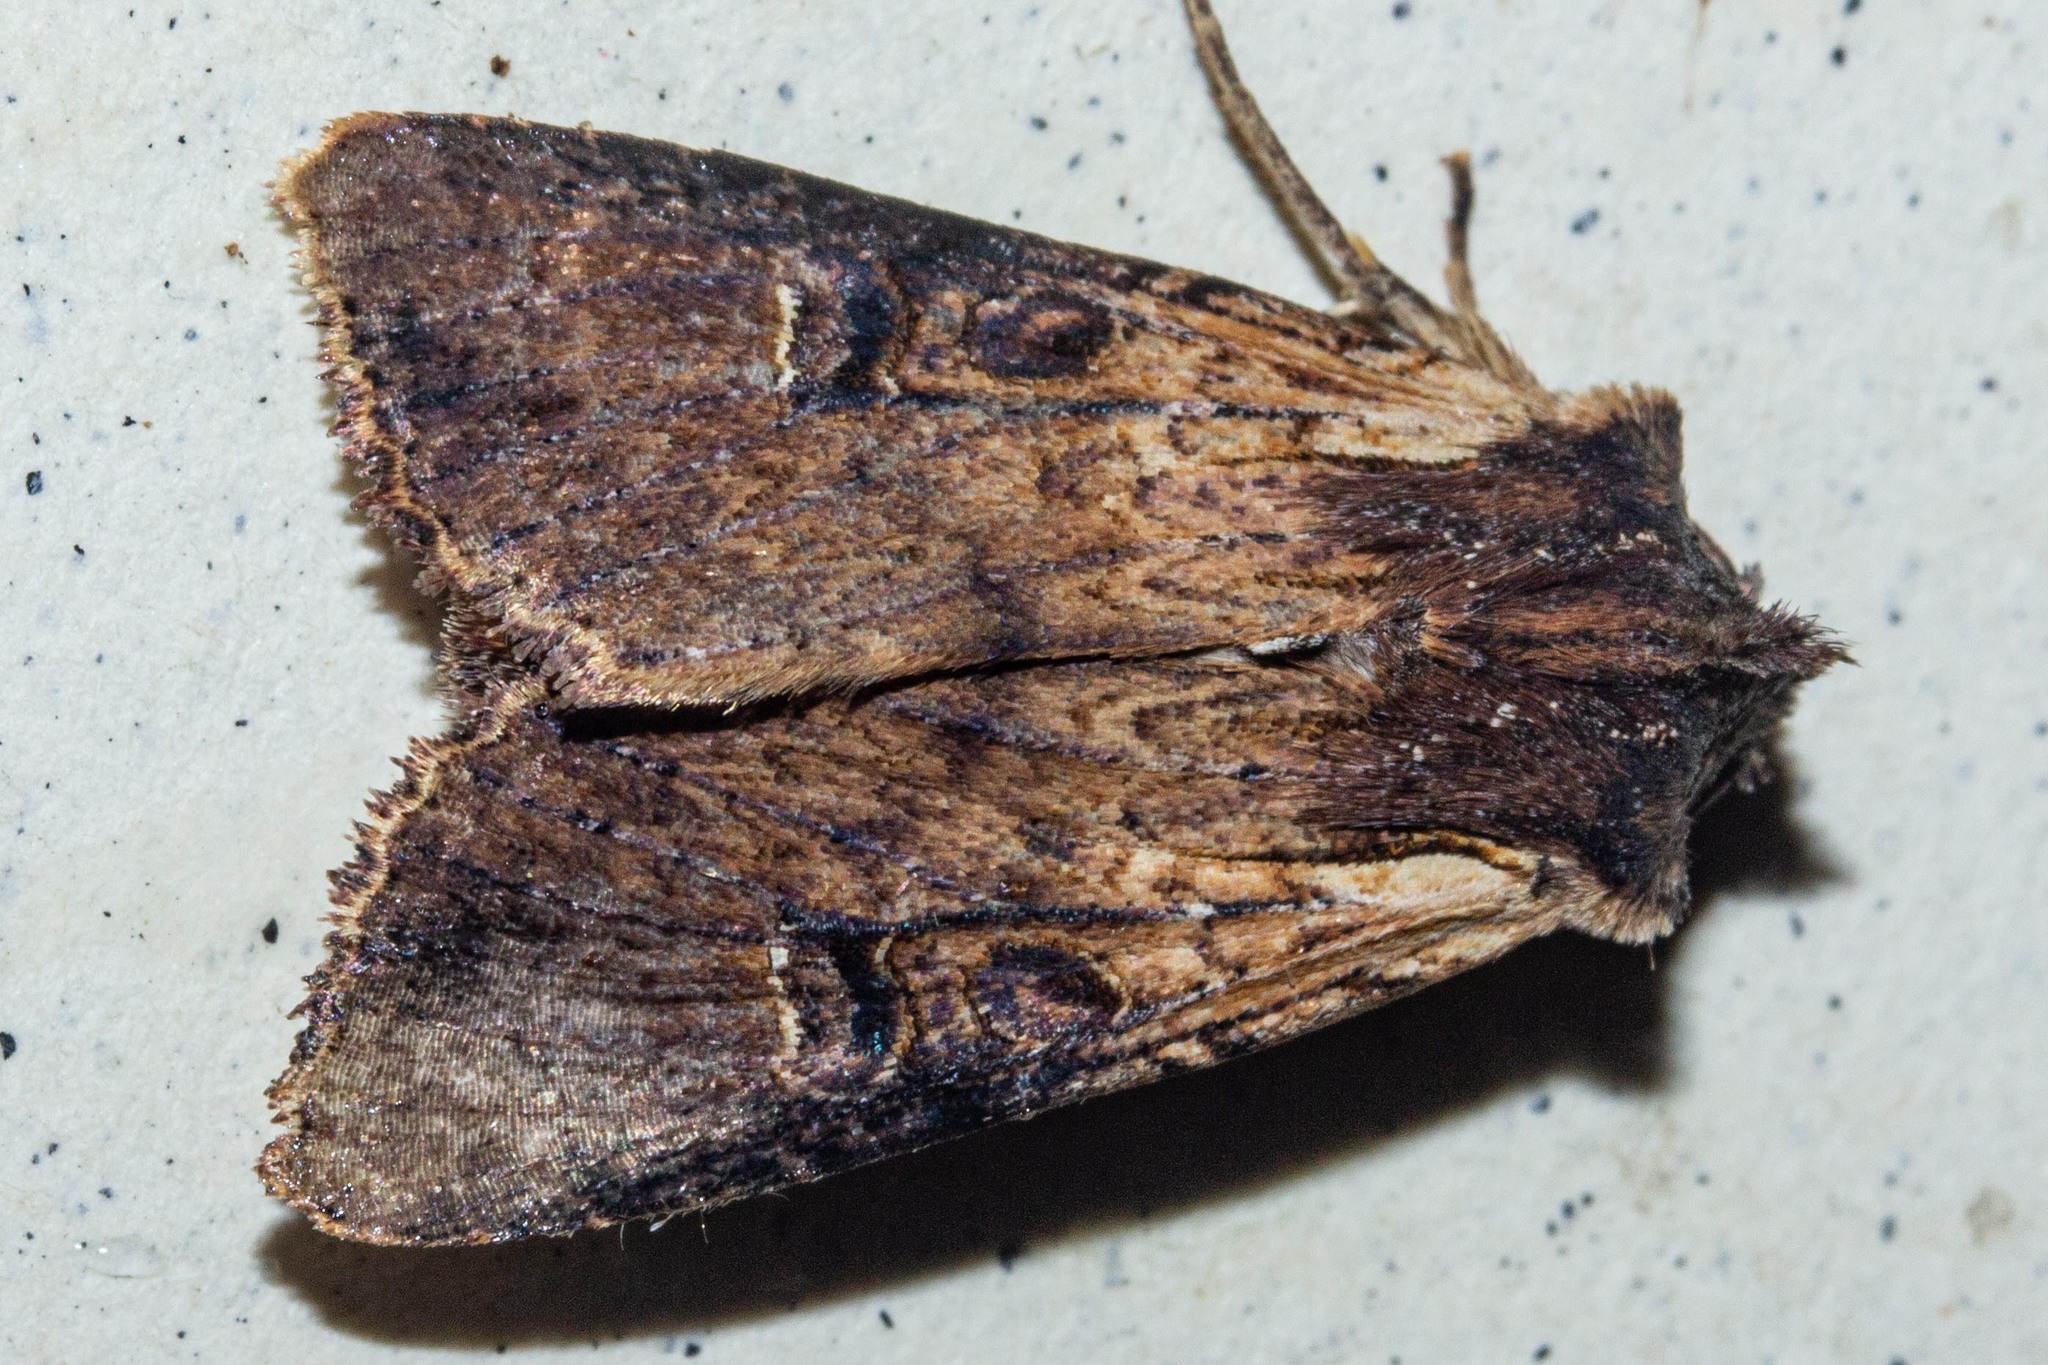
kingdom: Animalia
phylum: Arthropoda
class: Insecta
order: Lepidoptera
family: Noctuidae
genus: Ichneutica
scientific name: Ichneutica omoplaca
